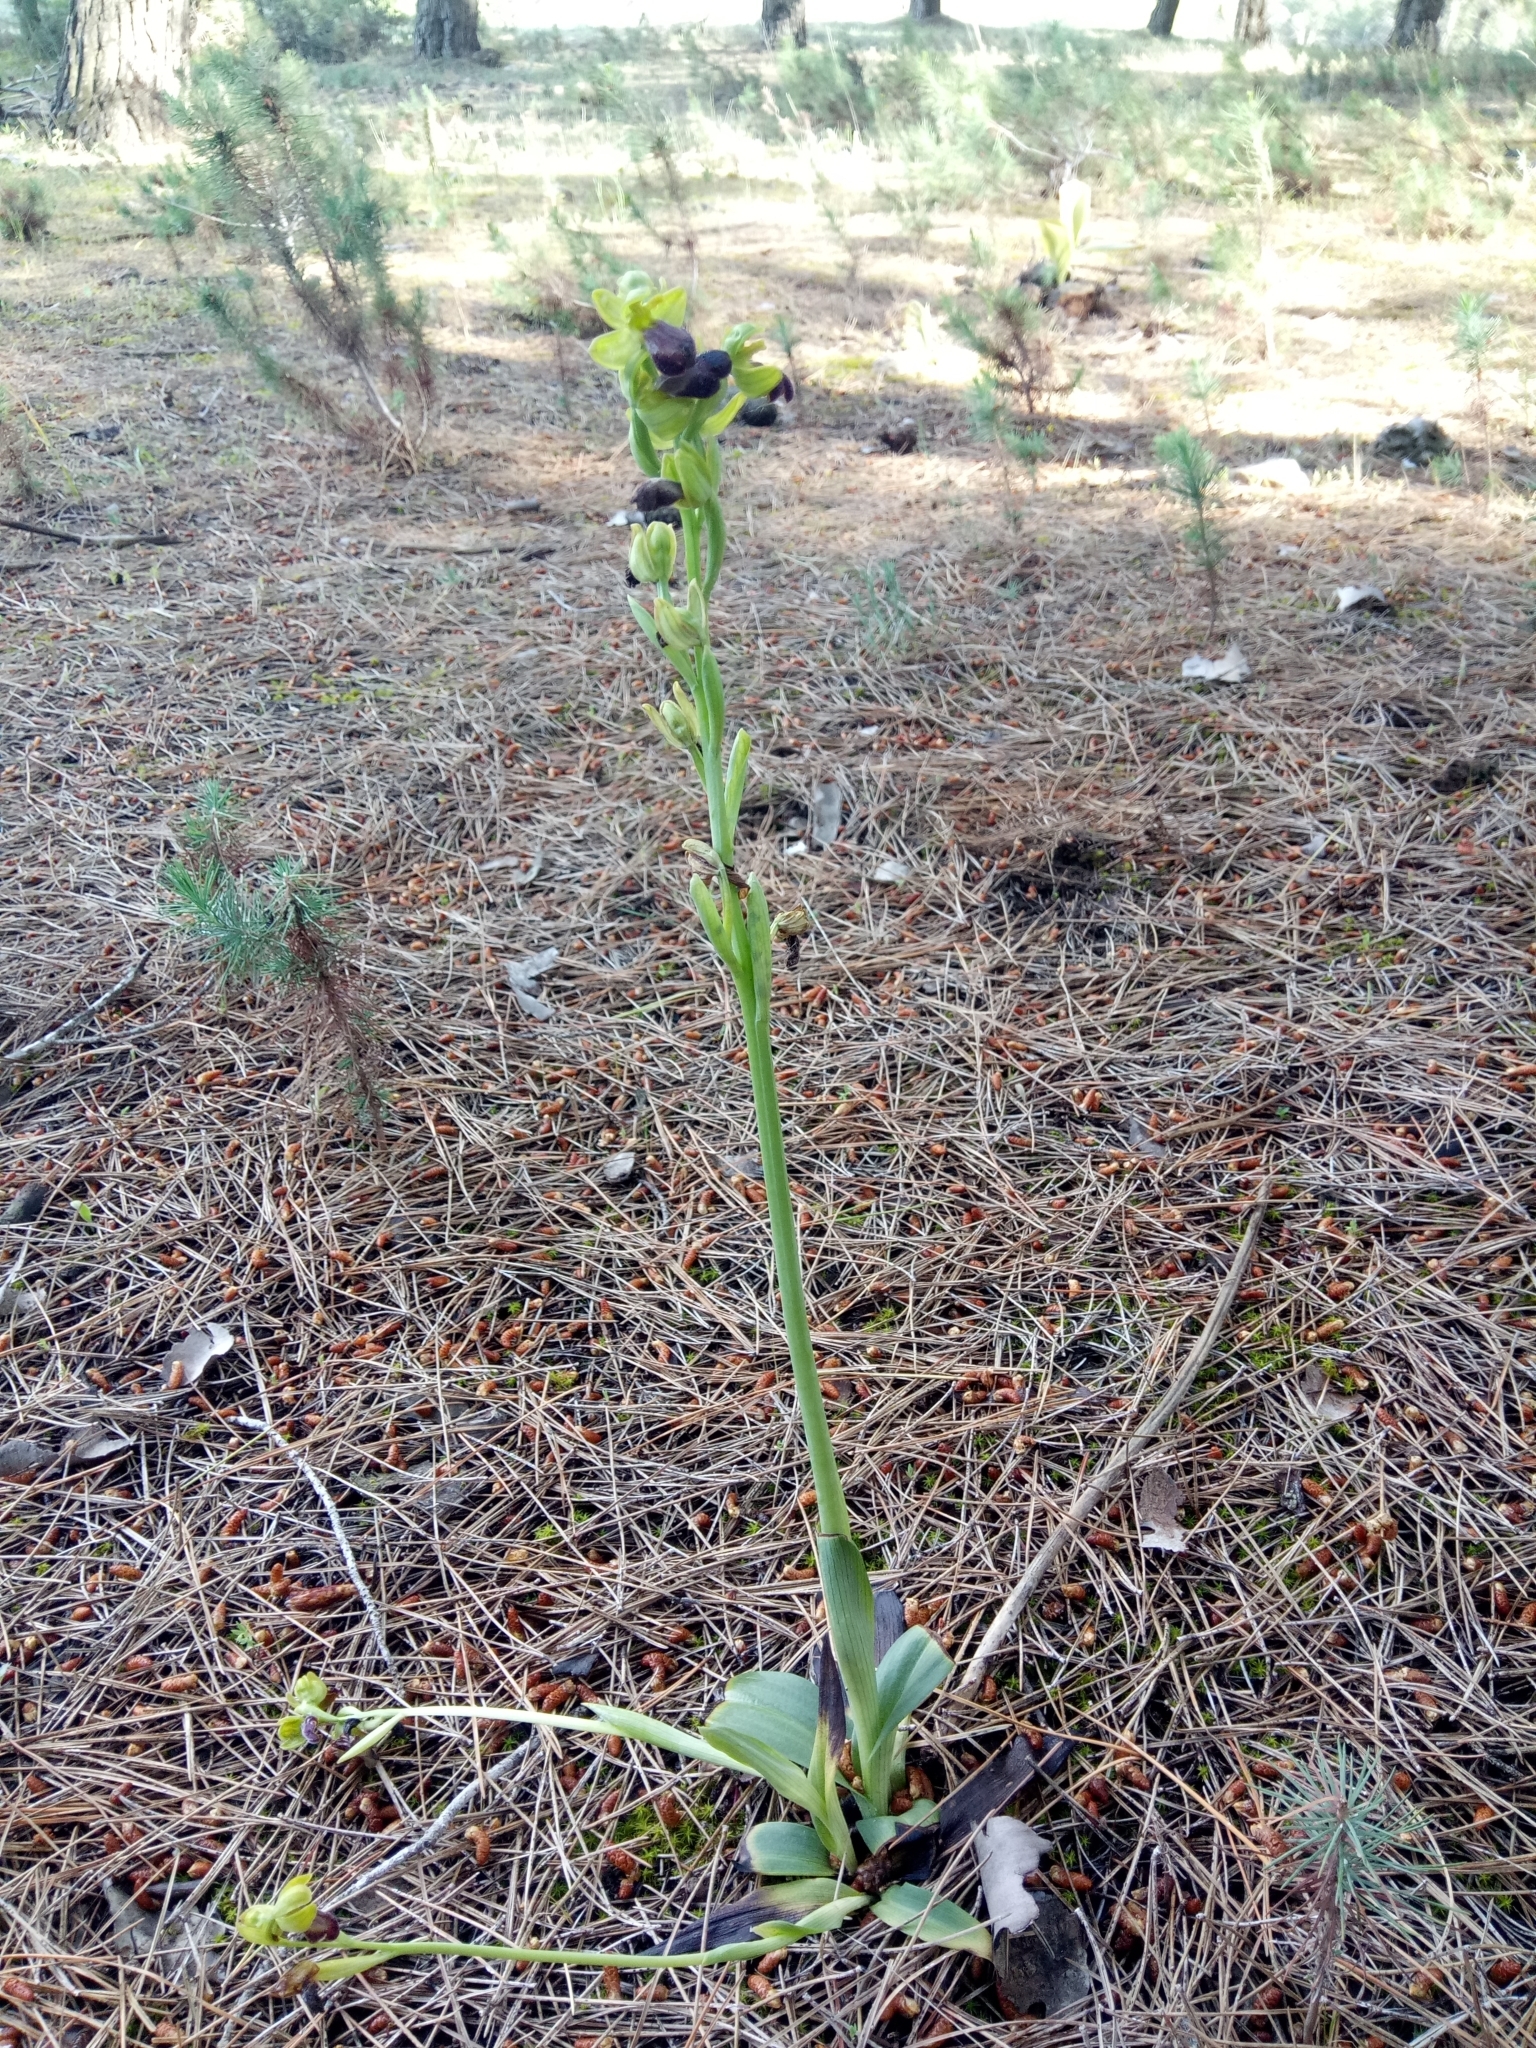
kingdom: Plantae
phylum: Tracheophyta
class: Liliopsida
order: Asparagales
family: Orchidaceae
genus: Ophrys
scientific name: Ophrys fusca
